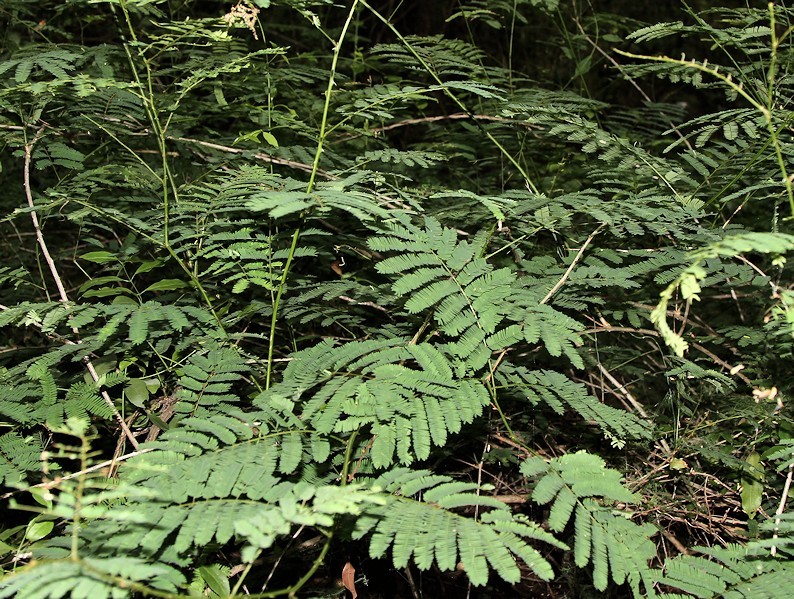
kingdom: Plantae
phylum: Tracheophyta
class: Magnoliopsida
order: Fabales
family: Fabaceae
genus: Senegalia
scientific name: Senegalia schweinfurthii
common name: River climbing acacia
